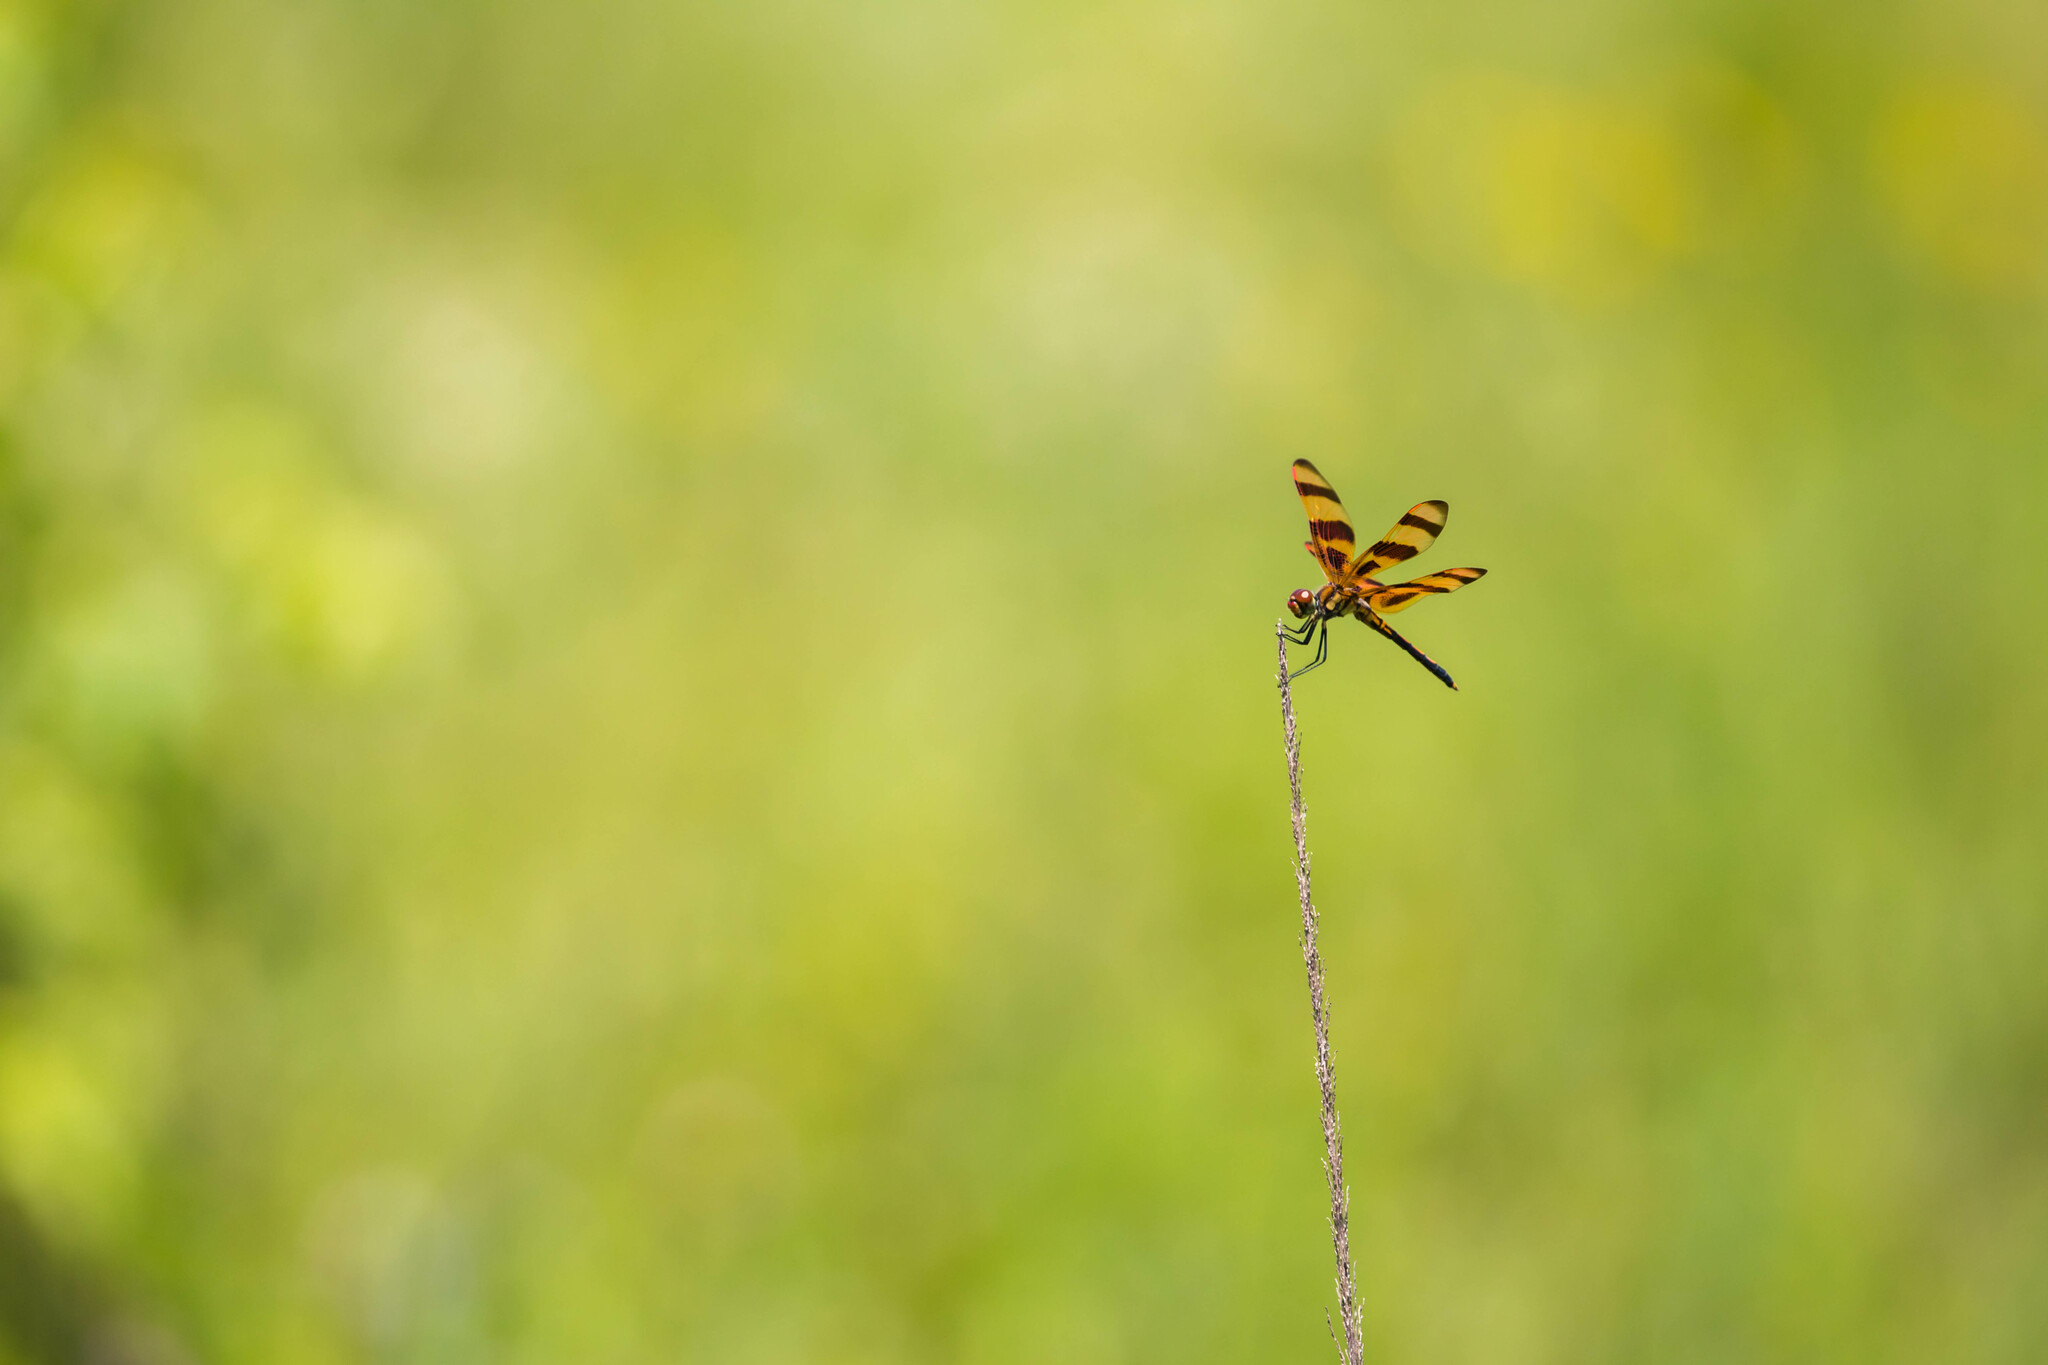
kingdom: Animalia
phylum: Arthropoda
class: Insecta
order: Odonata
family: Libellulidae
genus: Celithemis
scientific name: Celithemis eponina
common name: Halloween pennant
